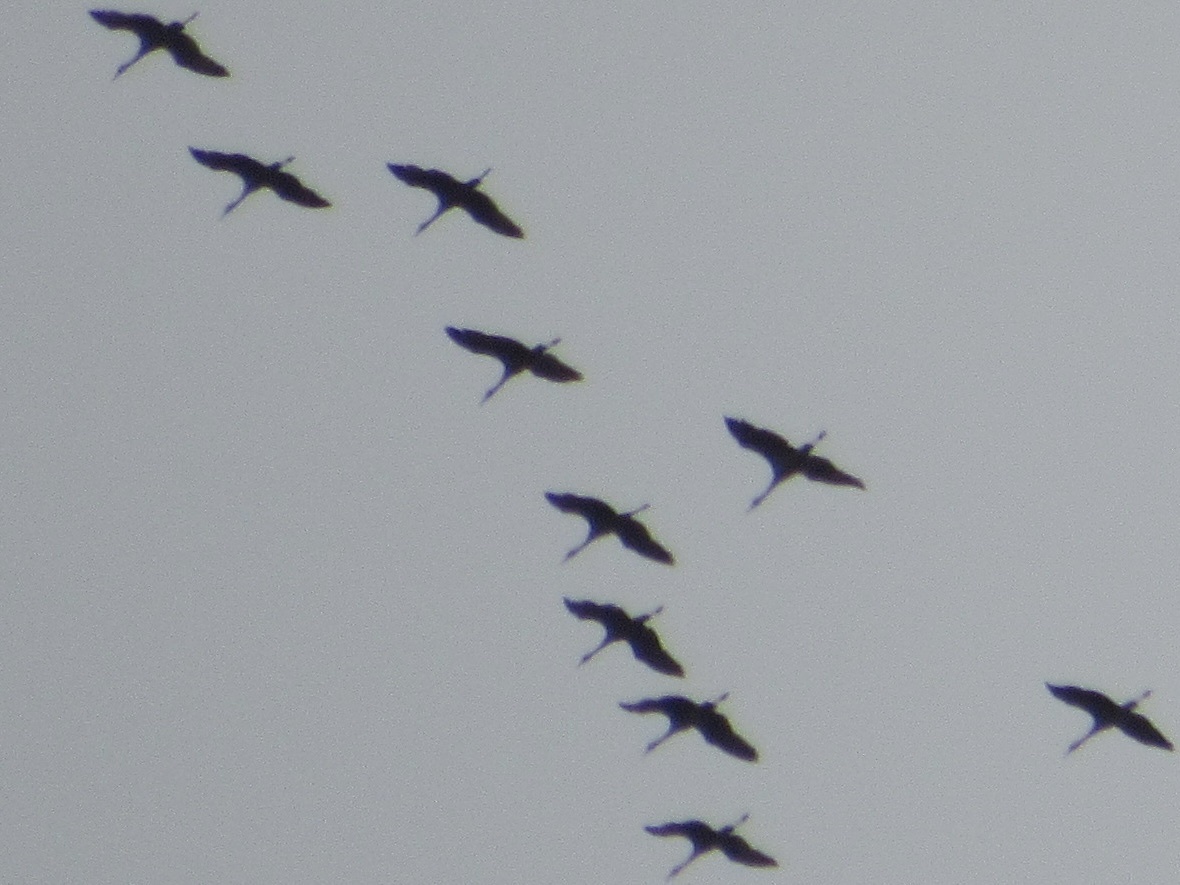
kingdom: Animalia
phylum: Chordata
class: Aves
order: Gruiformes
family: Gruidae
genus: Grus
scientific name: Grus canadensis
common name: Sandhill crane
